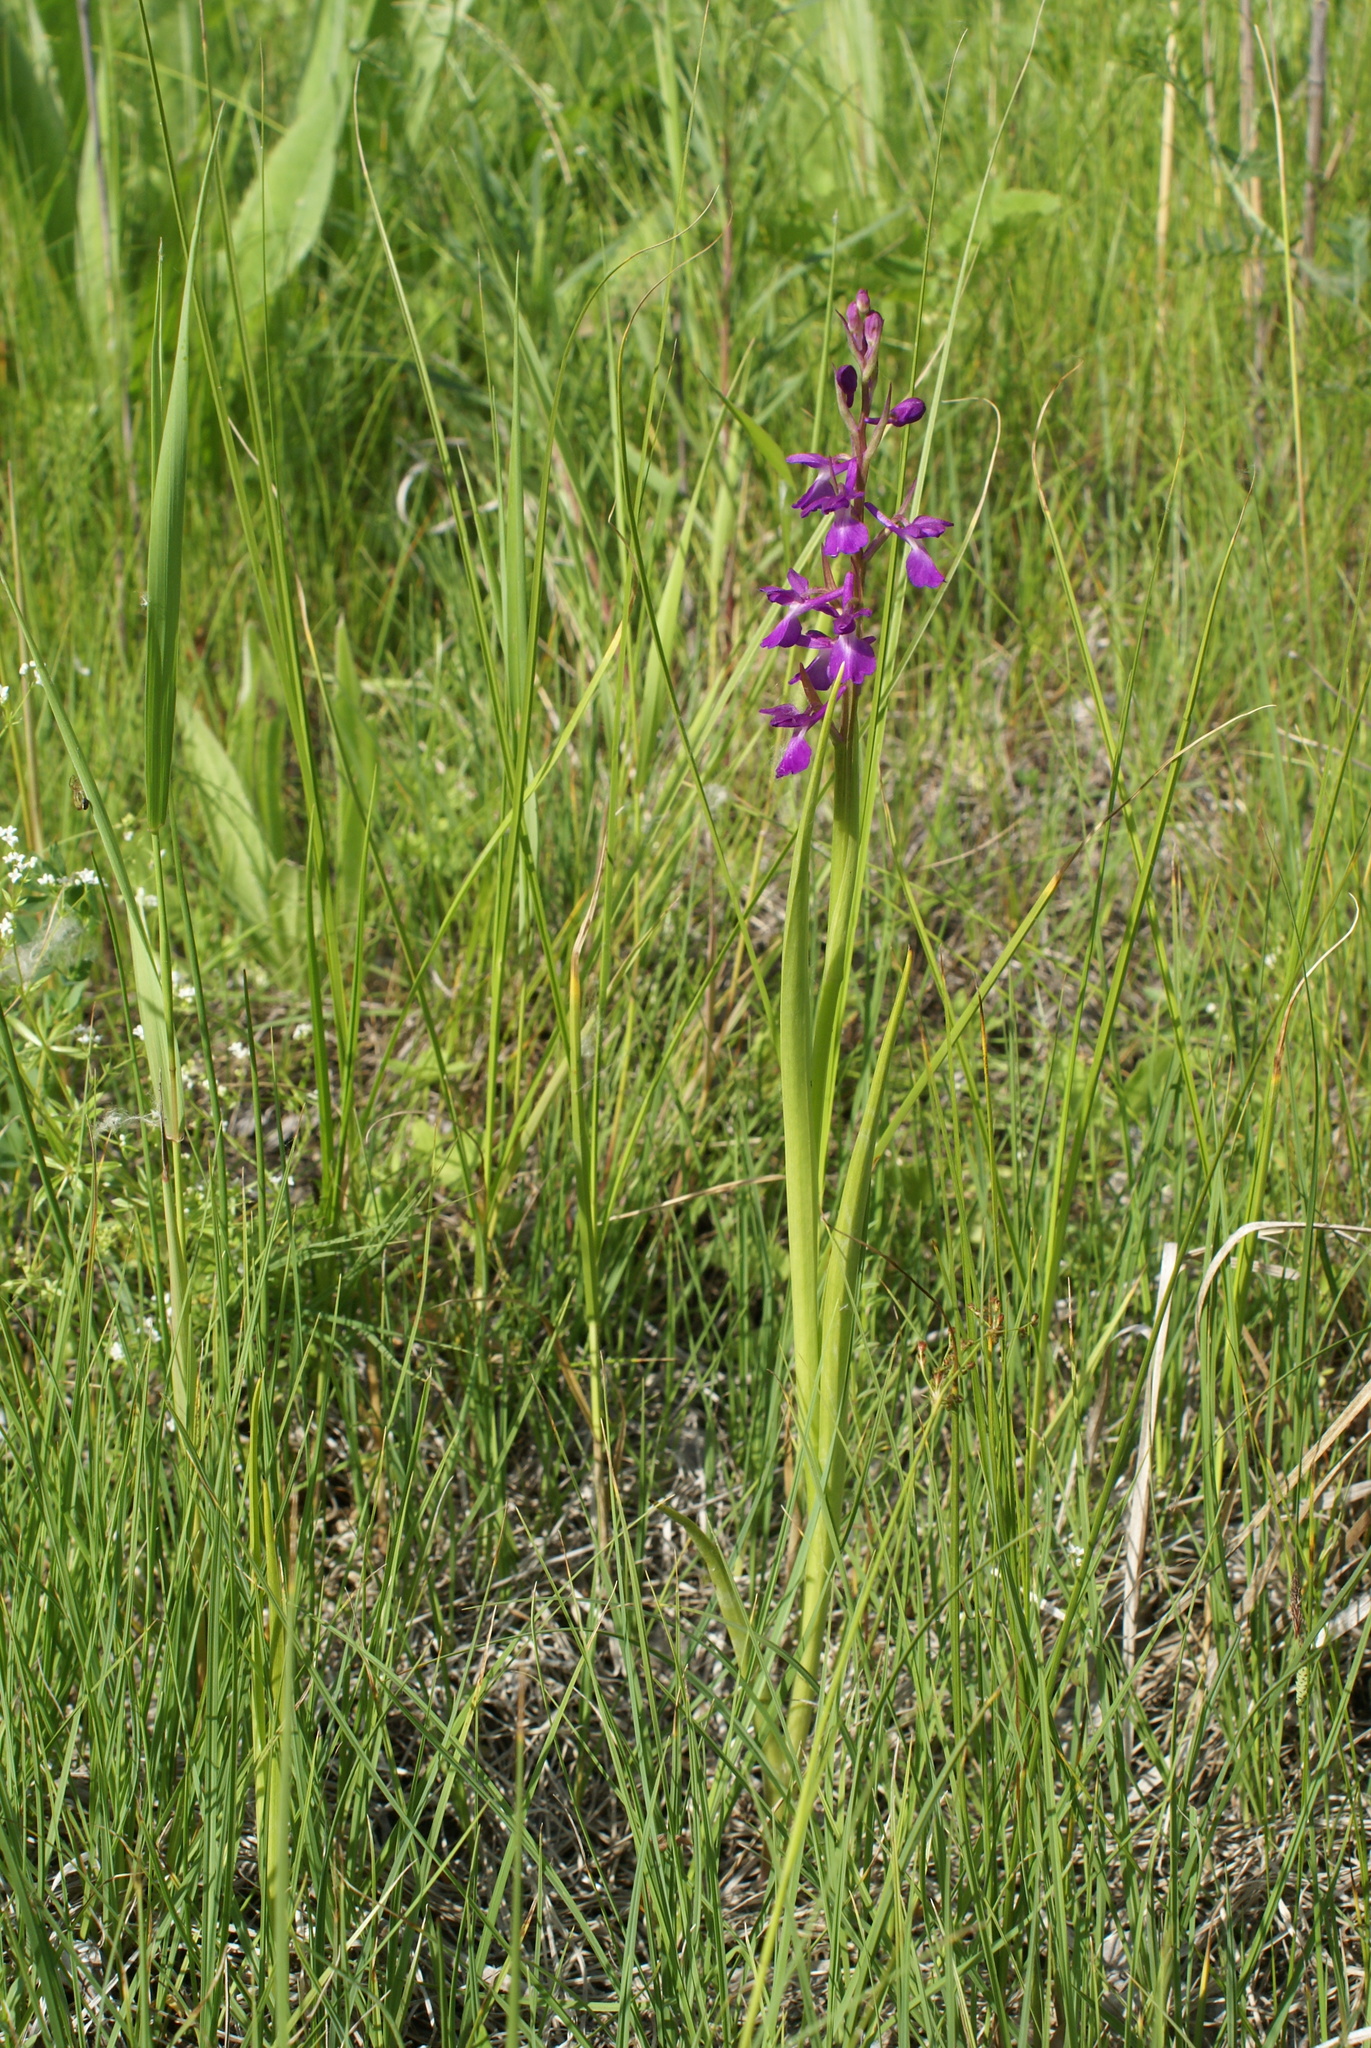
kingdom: Plantae
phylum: Tracheophyta
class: Liliopsida
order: Asparagales
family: Orchidaceae
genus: Anacamptis
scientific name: Anacamptis palustris
